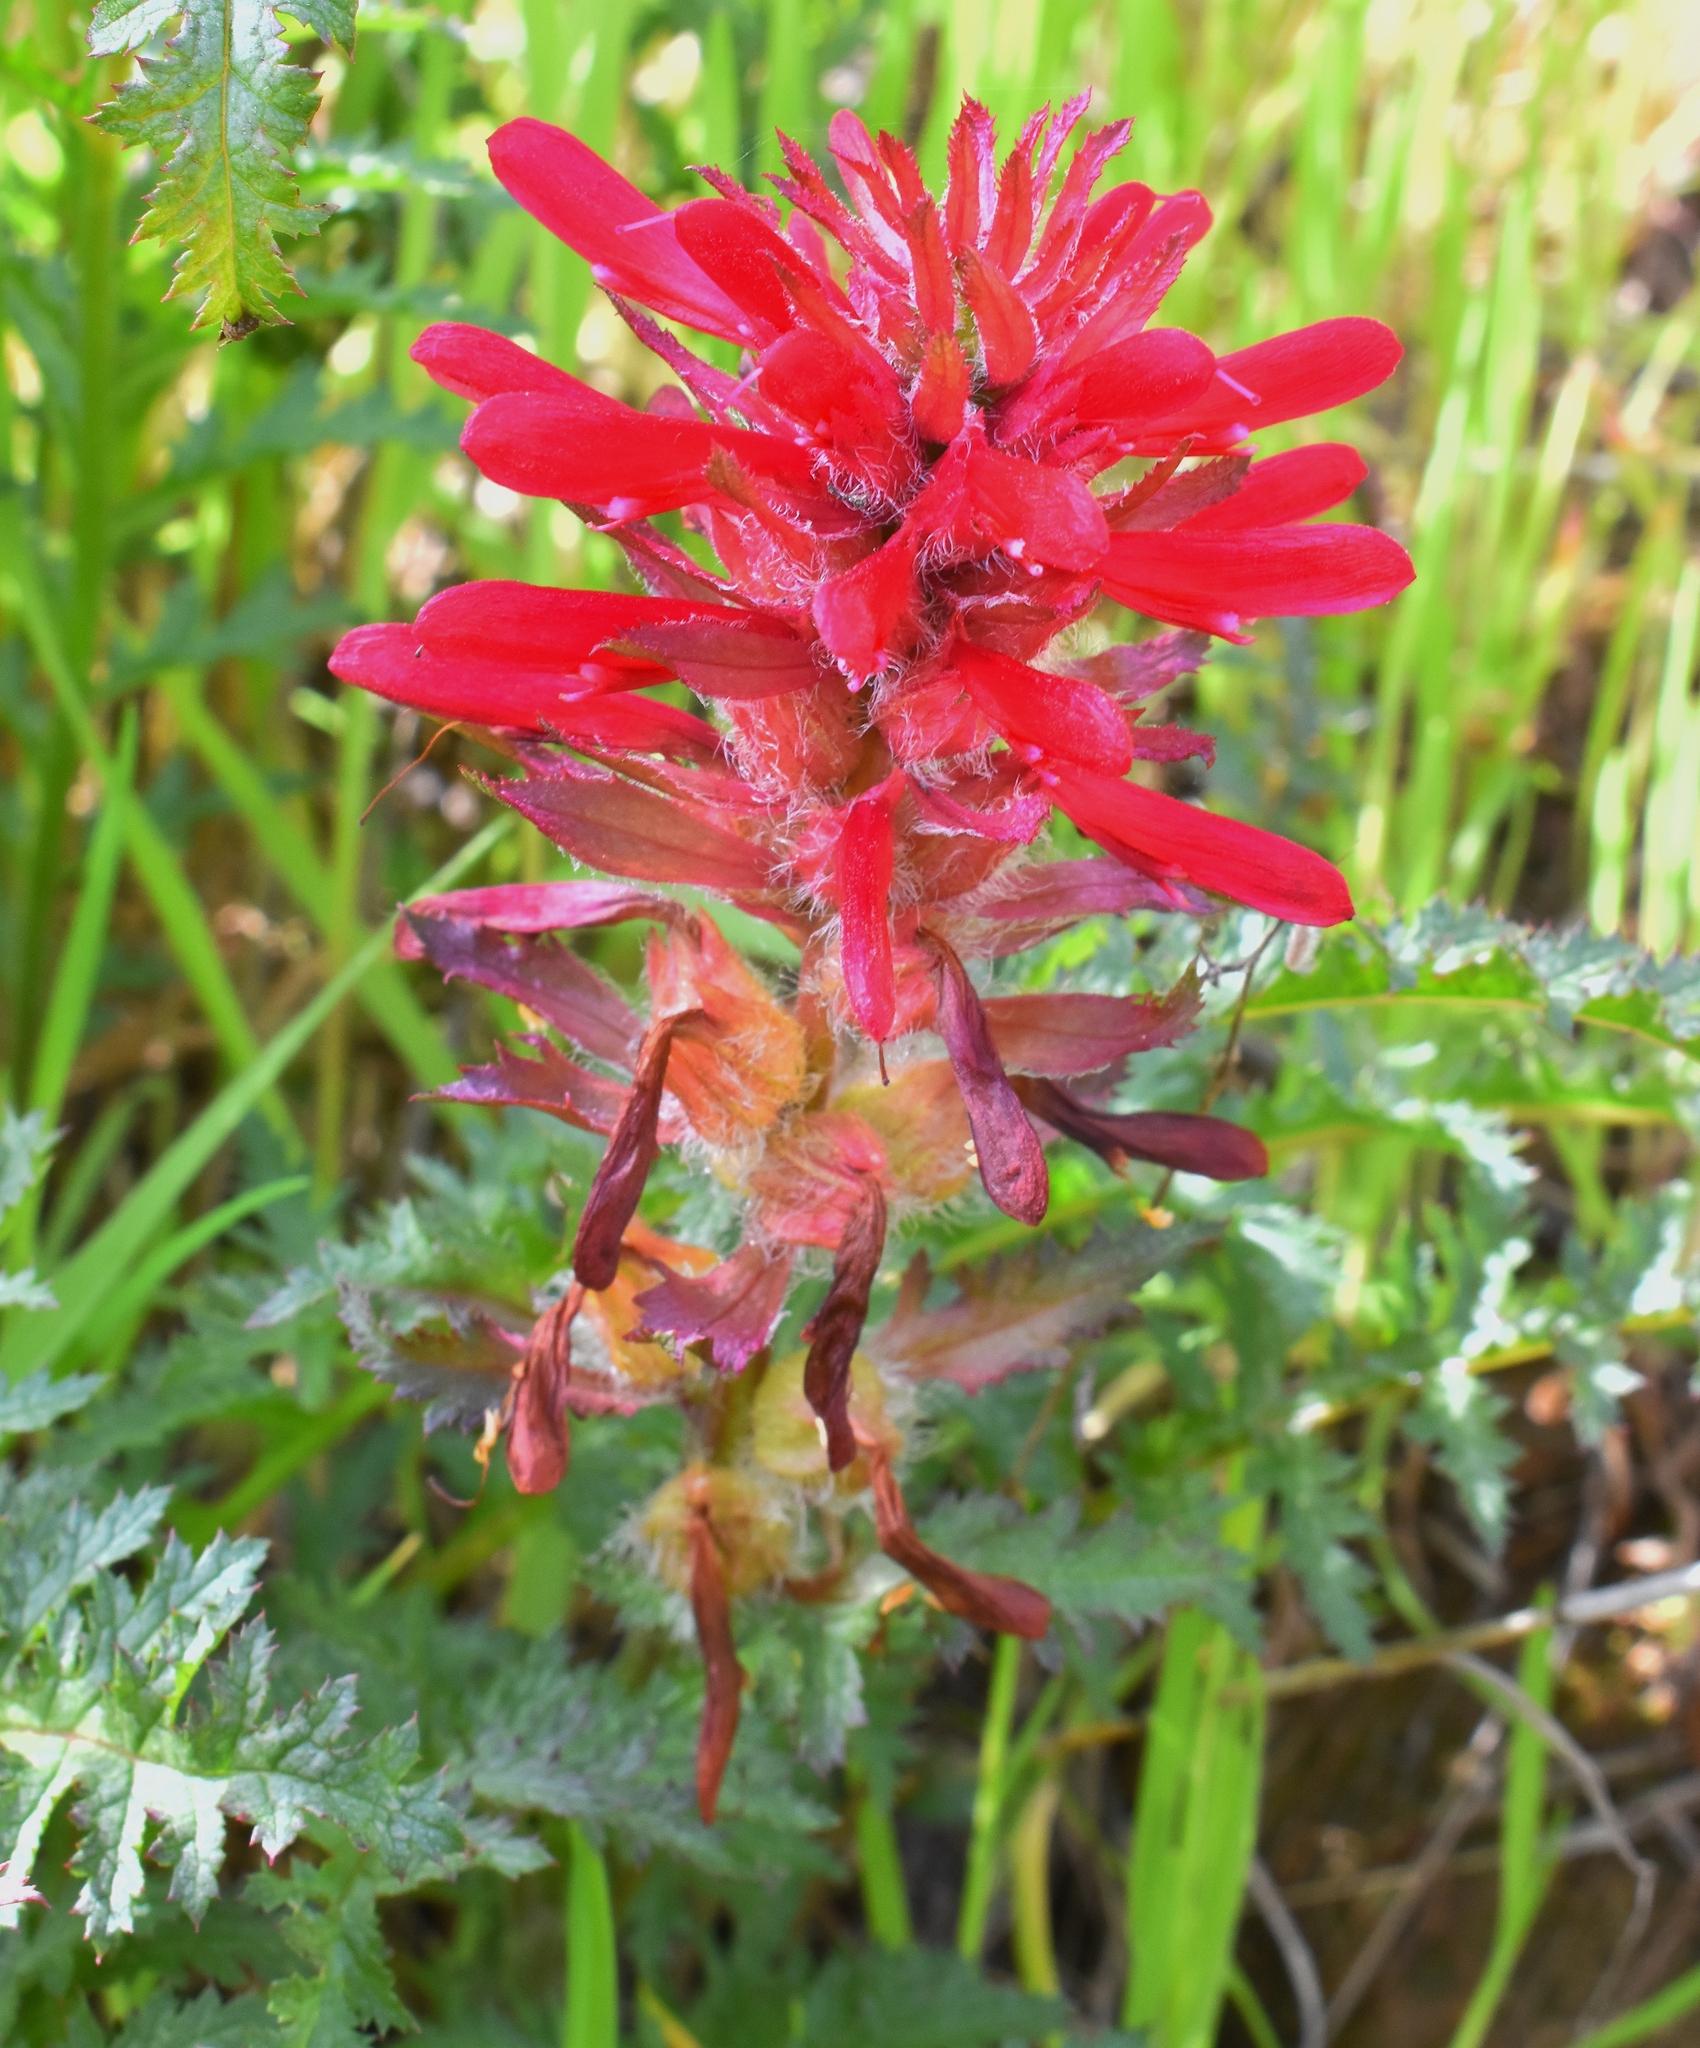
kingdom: Plantae
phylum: Tracheophyta
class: Magnoliopsida
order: Lamiales
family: Orobanchaceae
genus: Pedicularis
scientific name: Pedicularis densiflora
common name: Indian warrior
